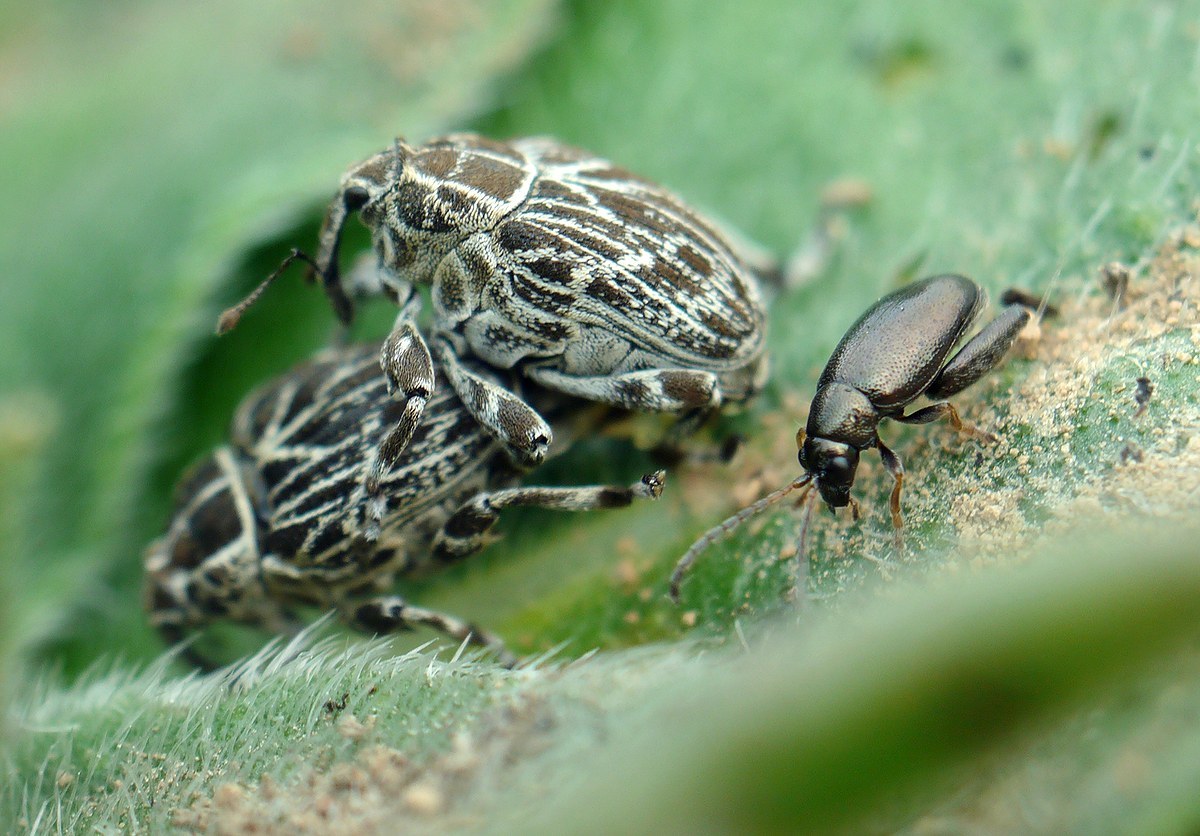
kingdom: Animalia
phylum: Arthropoda
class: Insecta
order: Coleoptera
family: Chrysomelidae
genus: Longitarsus
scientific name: Longitarsus echii
